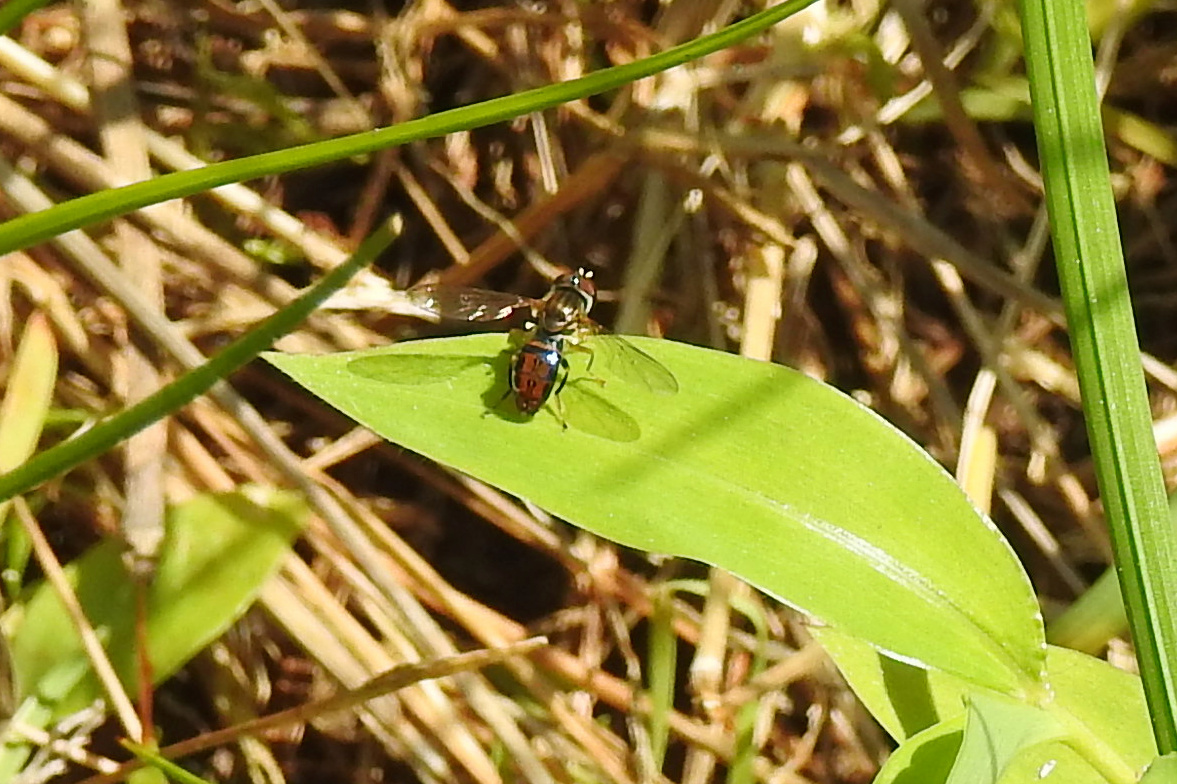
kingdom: Animalia
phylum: Arthropoda
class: Insecta
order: Diptera
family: Syrphidae
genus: Toxomerus
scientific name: Toxomerus boscii
